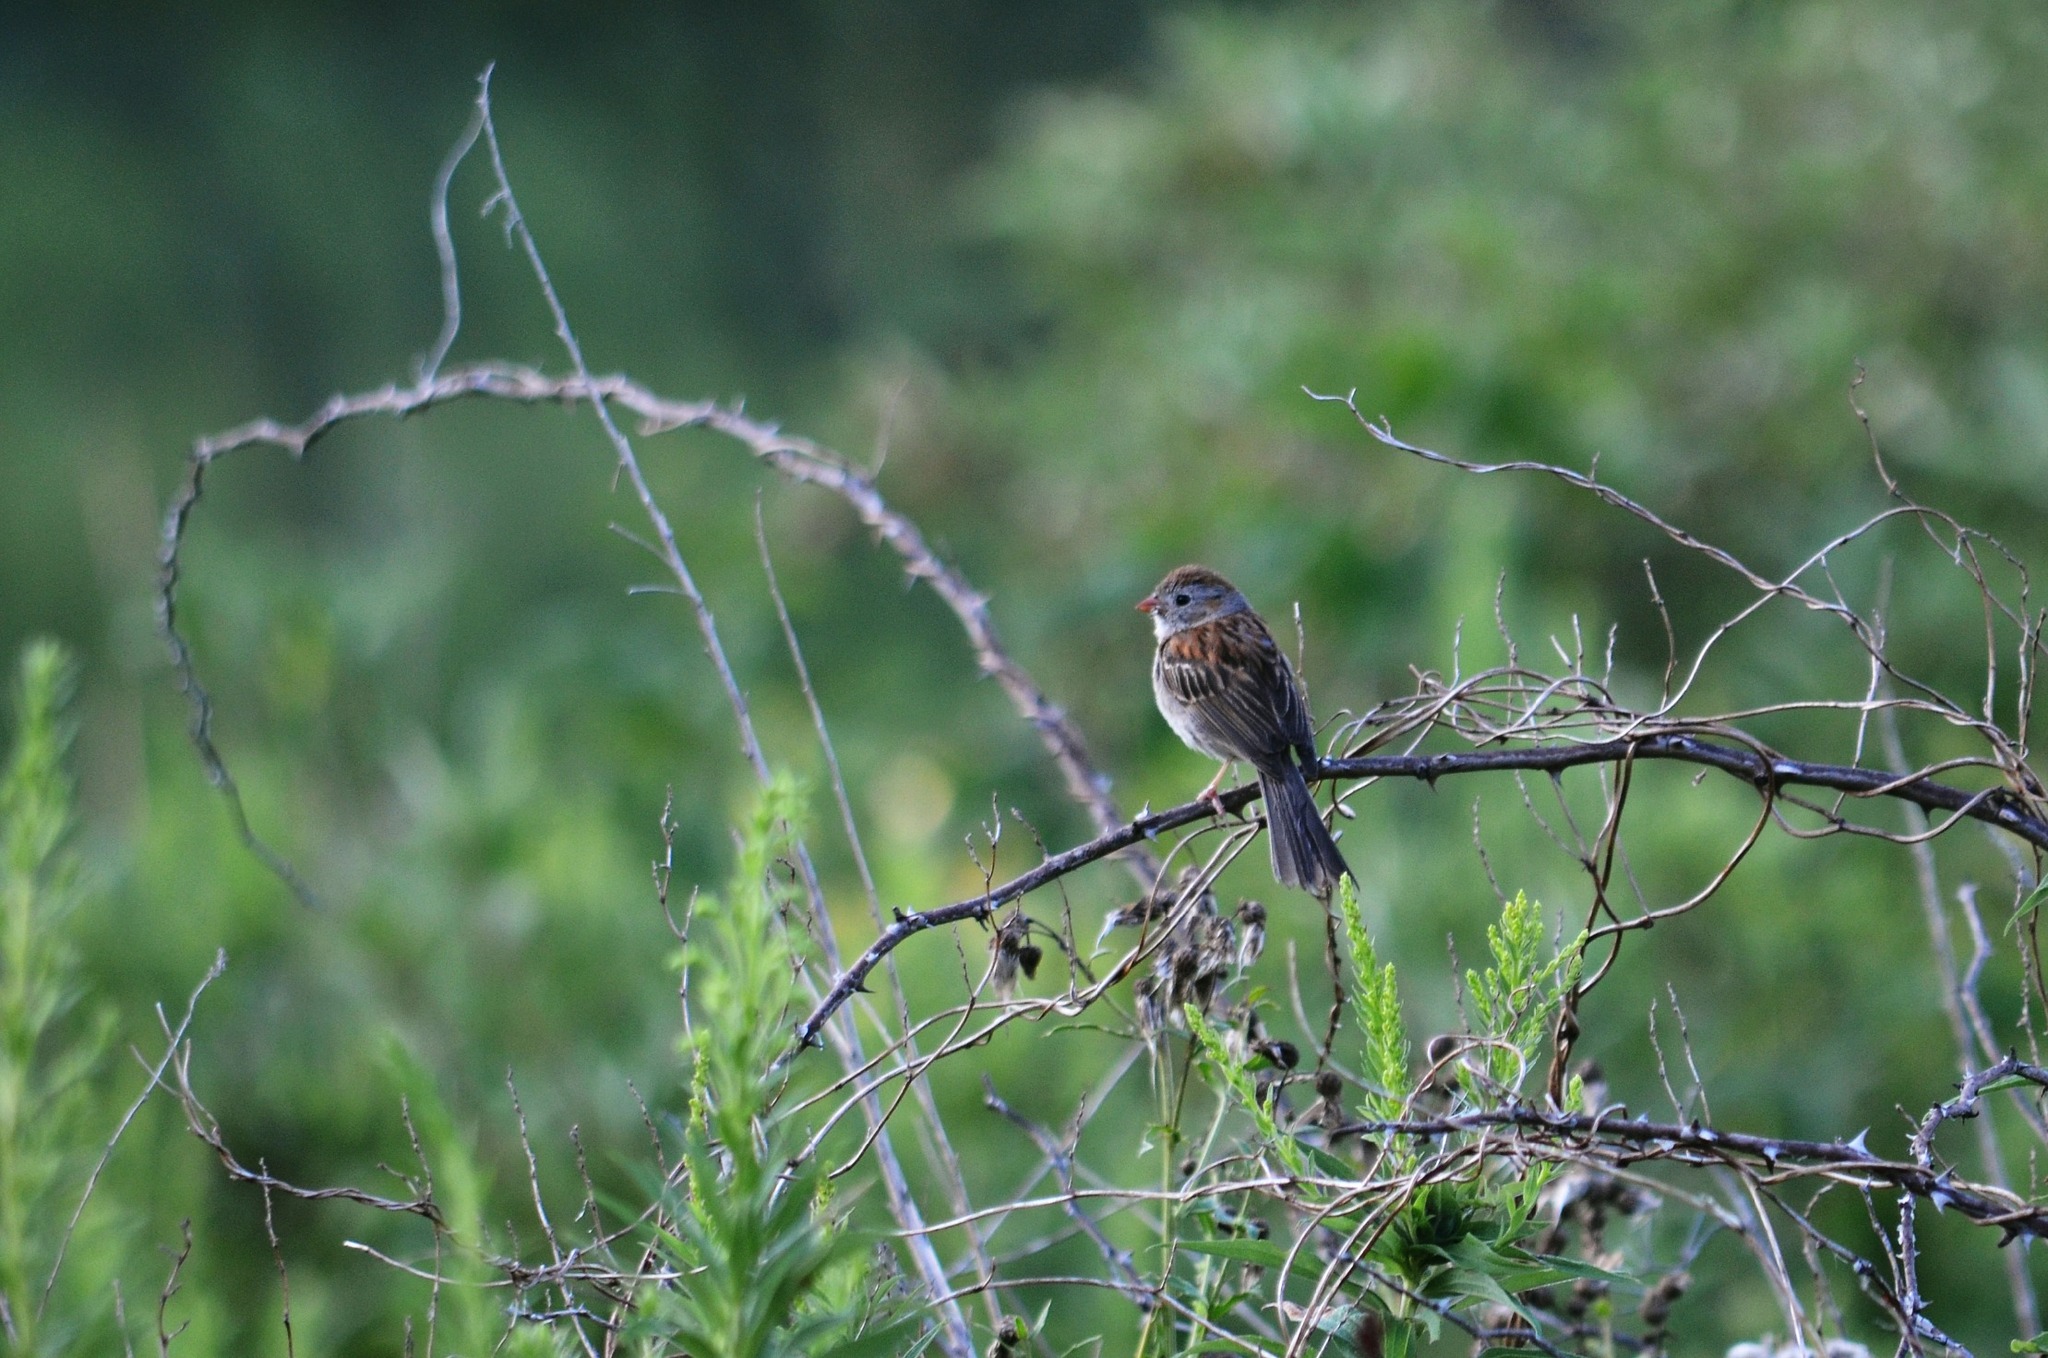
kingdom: Animalia
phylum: Chordata
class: Aves
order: Passeriformes
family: Passerellidae
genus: Spizella
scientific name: Spizella pusilla
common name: Field sparrow
